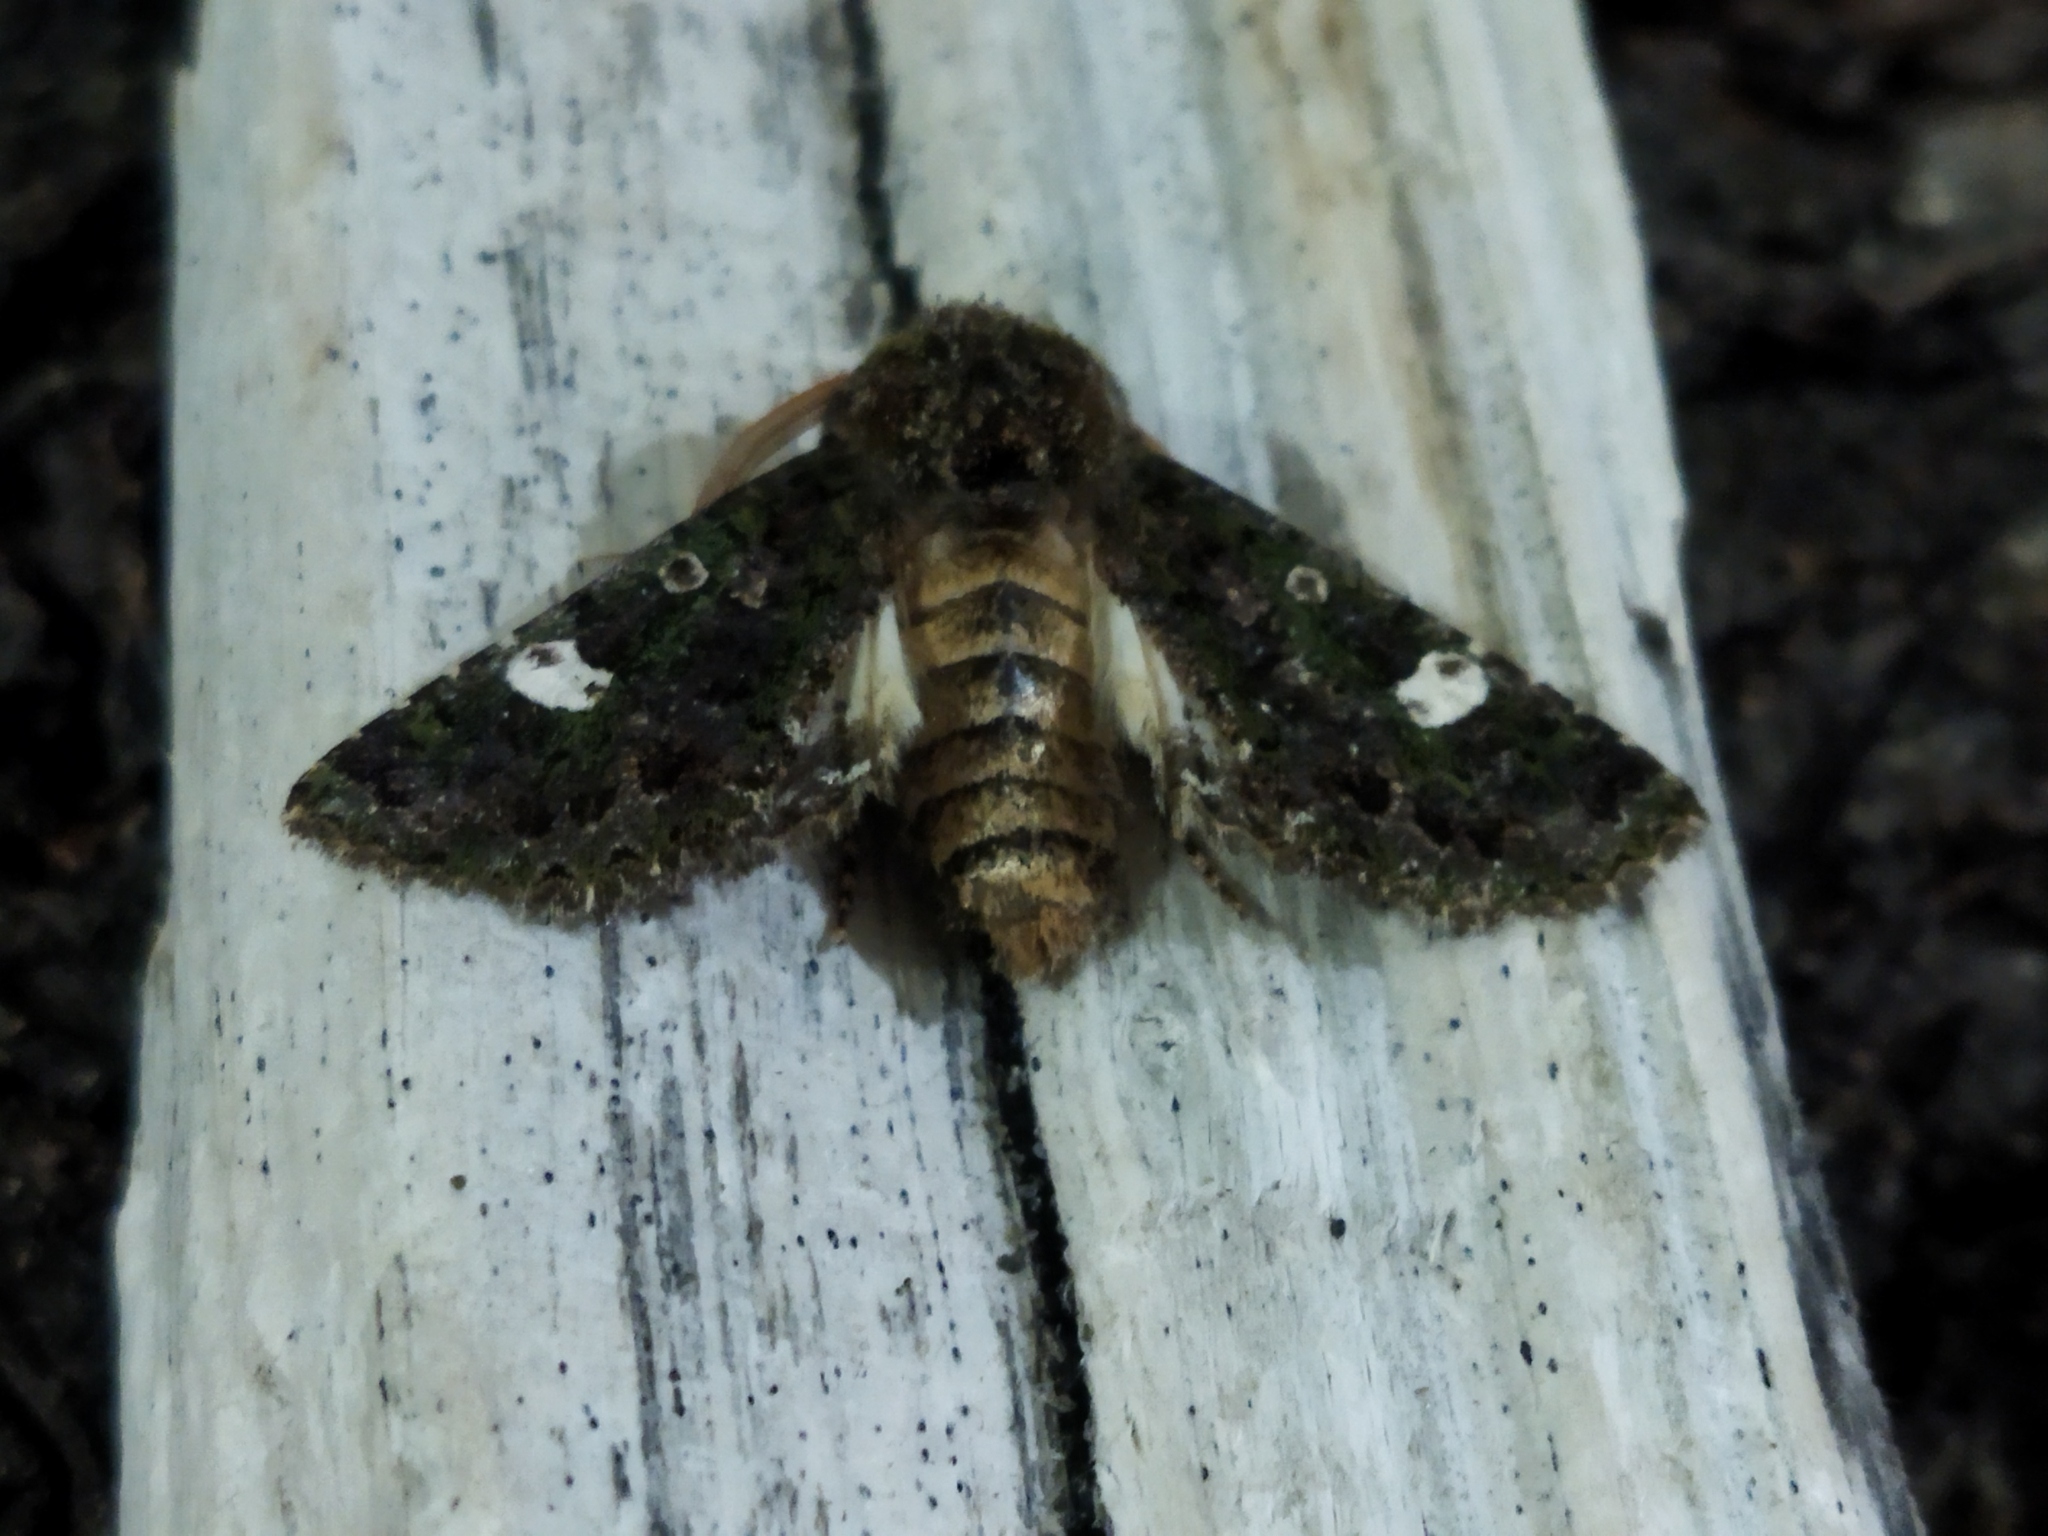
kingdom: Animalia
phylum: Arthropoda
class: Insecta
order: Lepidoptera
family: Noctuidae
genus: Valeria
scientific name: Valeria oleagina
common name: Green-brindled dot
